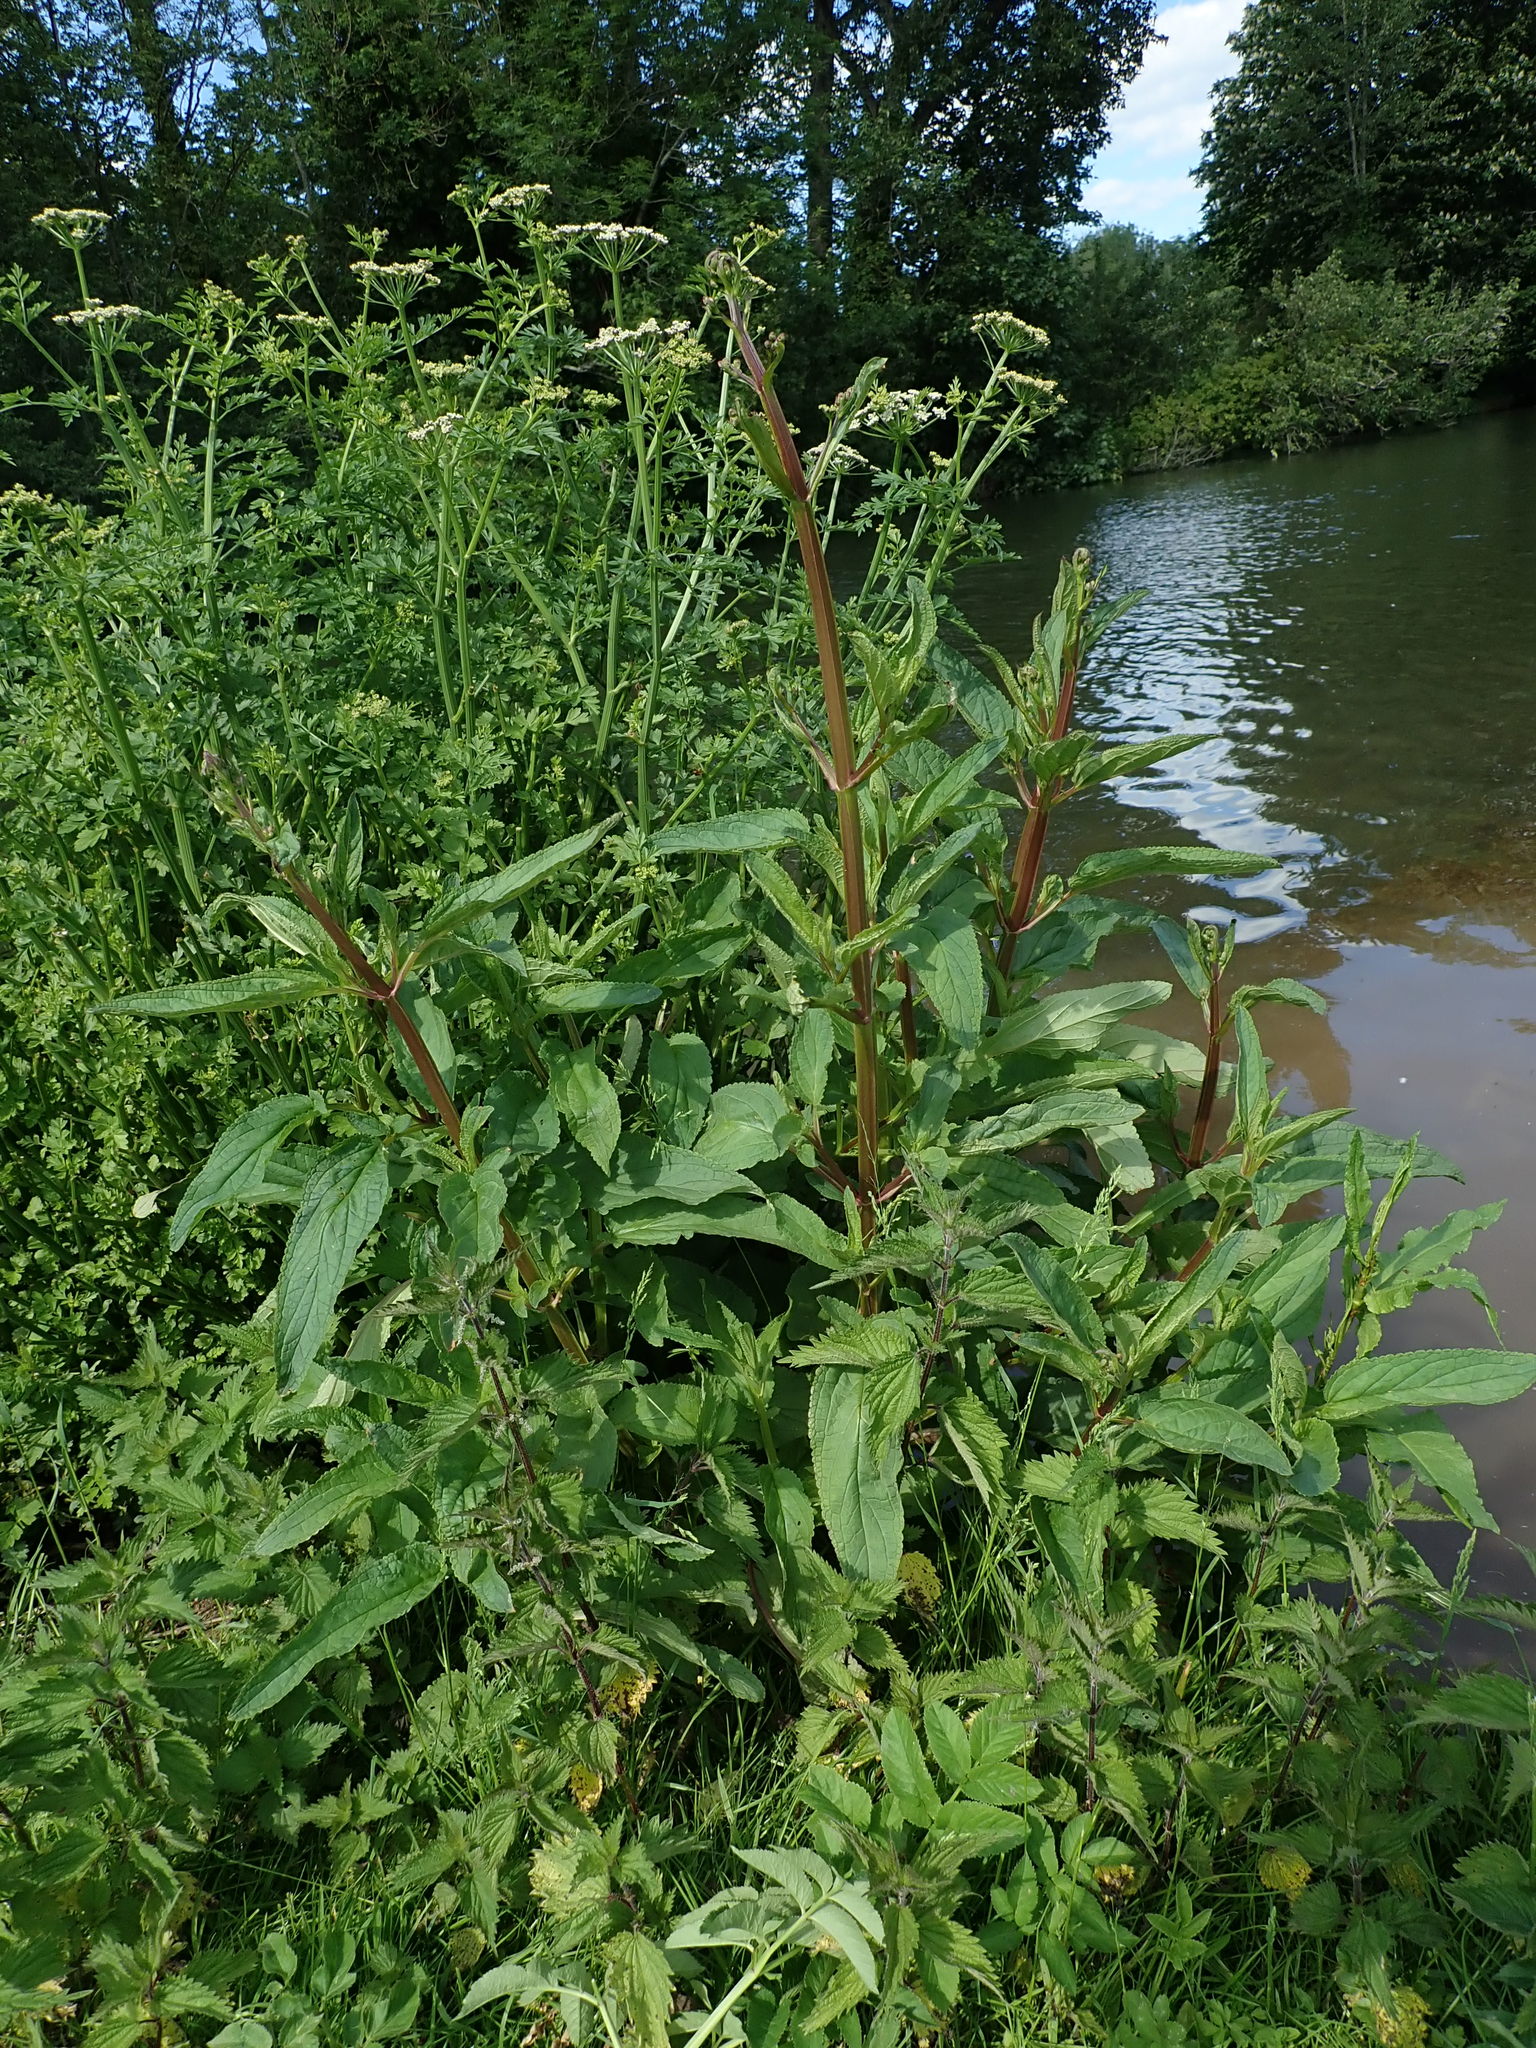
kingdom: Plantae
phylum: Tracheophyta
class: Magnoliopsida
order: Lamiales
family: Scrophulariaceae
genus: Scrophularia
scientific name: Scrophularia auriculata
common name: Water betony
